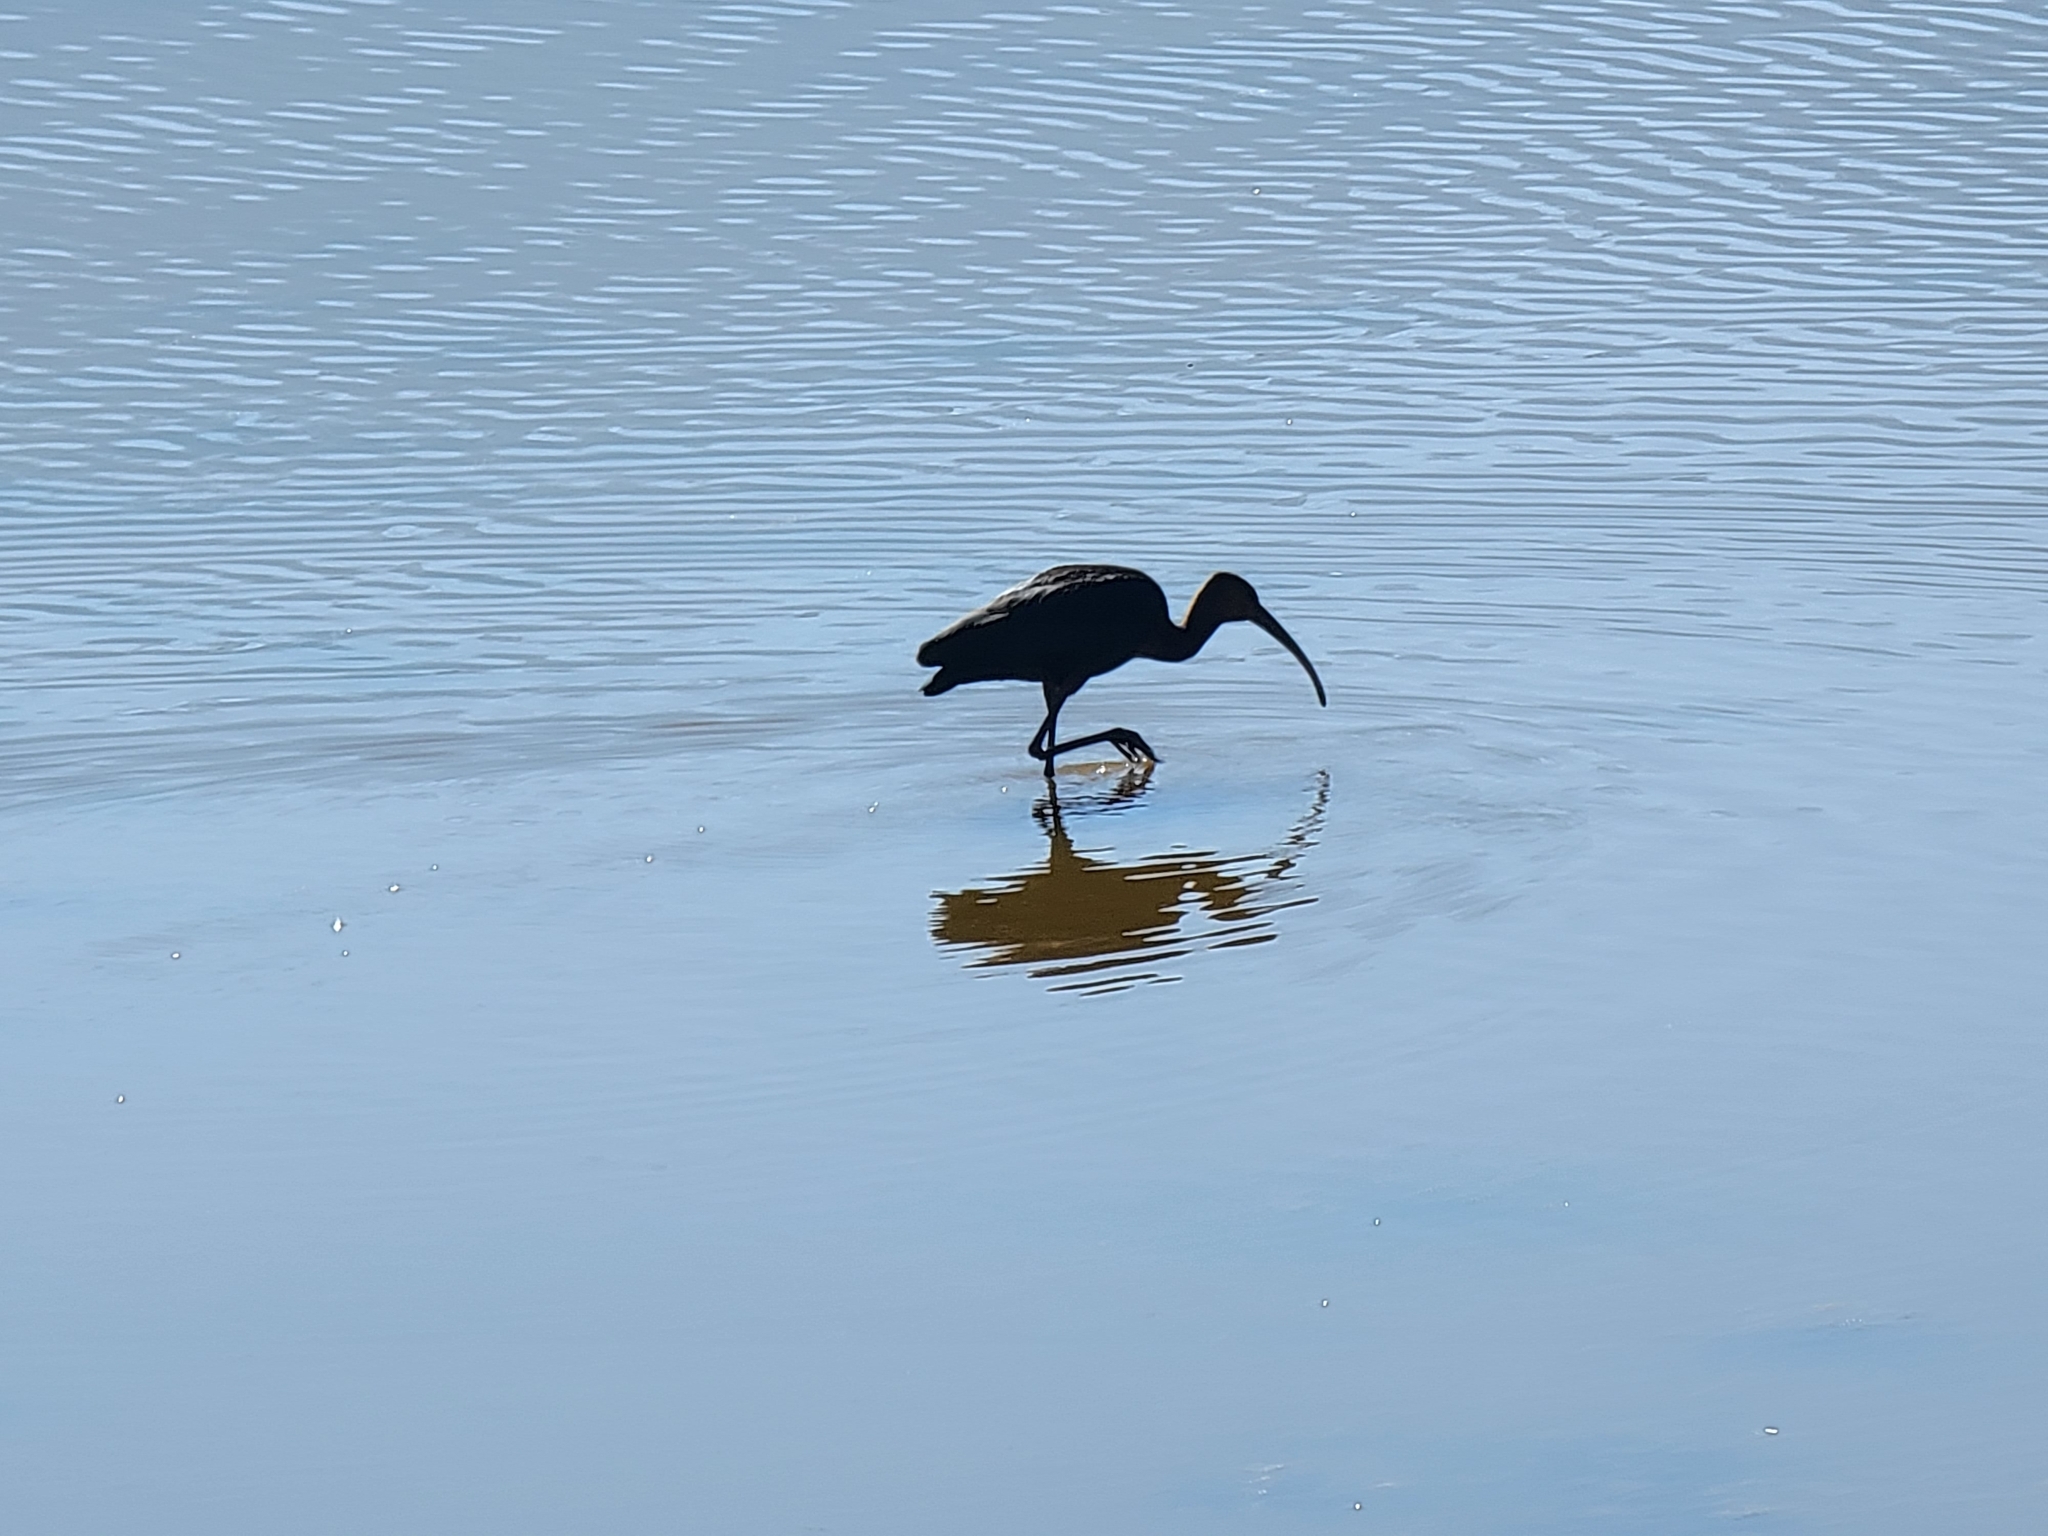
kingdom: Animalia
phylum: Chordata
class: Aves
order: Pelecaniformes
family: Threskiornithidae
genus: Plegadis
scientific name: Plegadis chihi
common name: White-faced ibis
